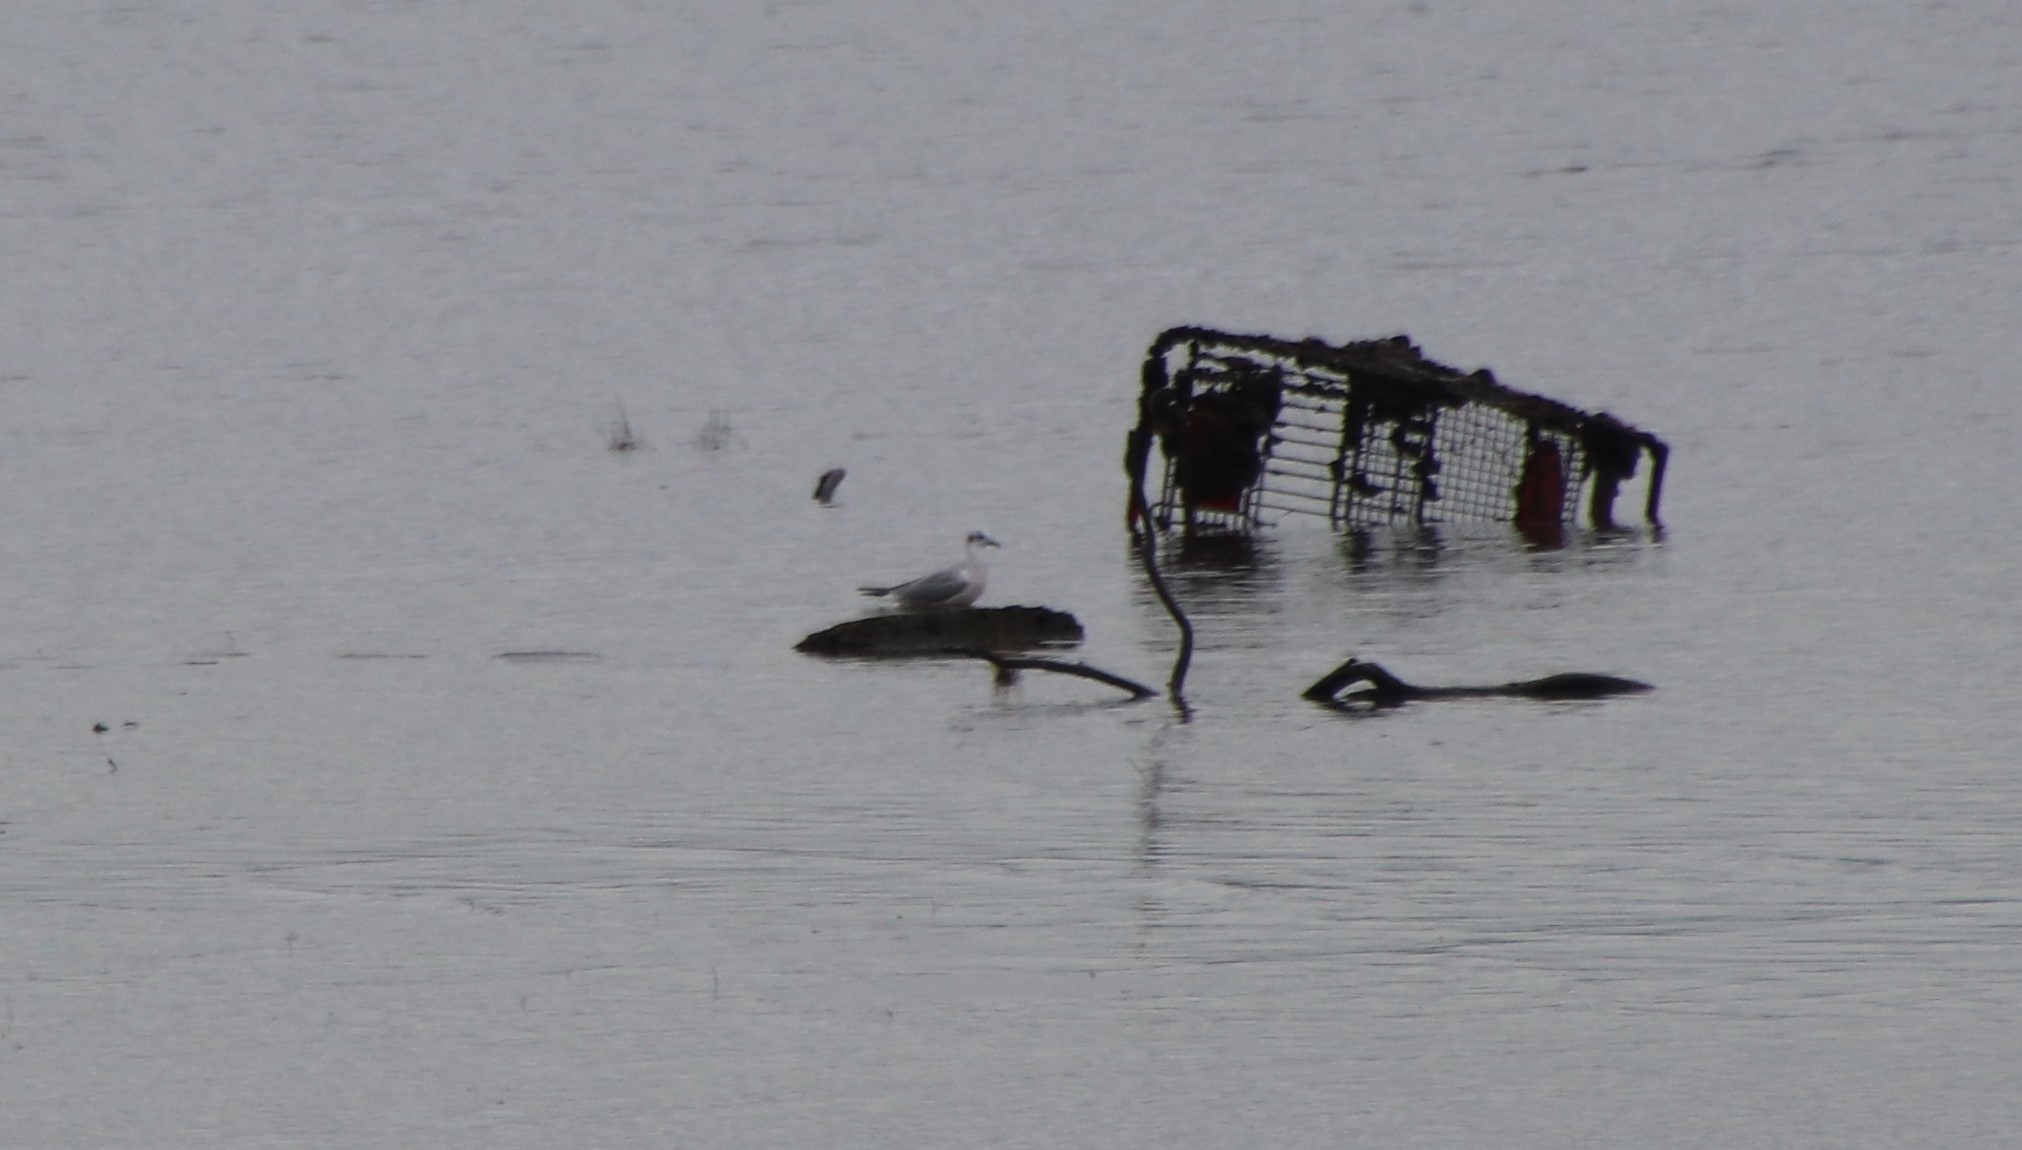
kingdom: Animalia
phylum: Chordata
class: Aves
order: Charadriiformes
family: Laridae
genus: Chroicocephalus
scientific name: Chroicocephalus philadelphia
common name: Bonaparte's gull
